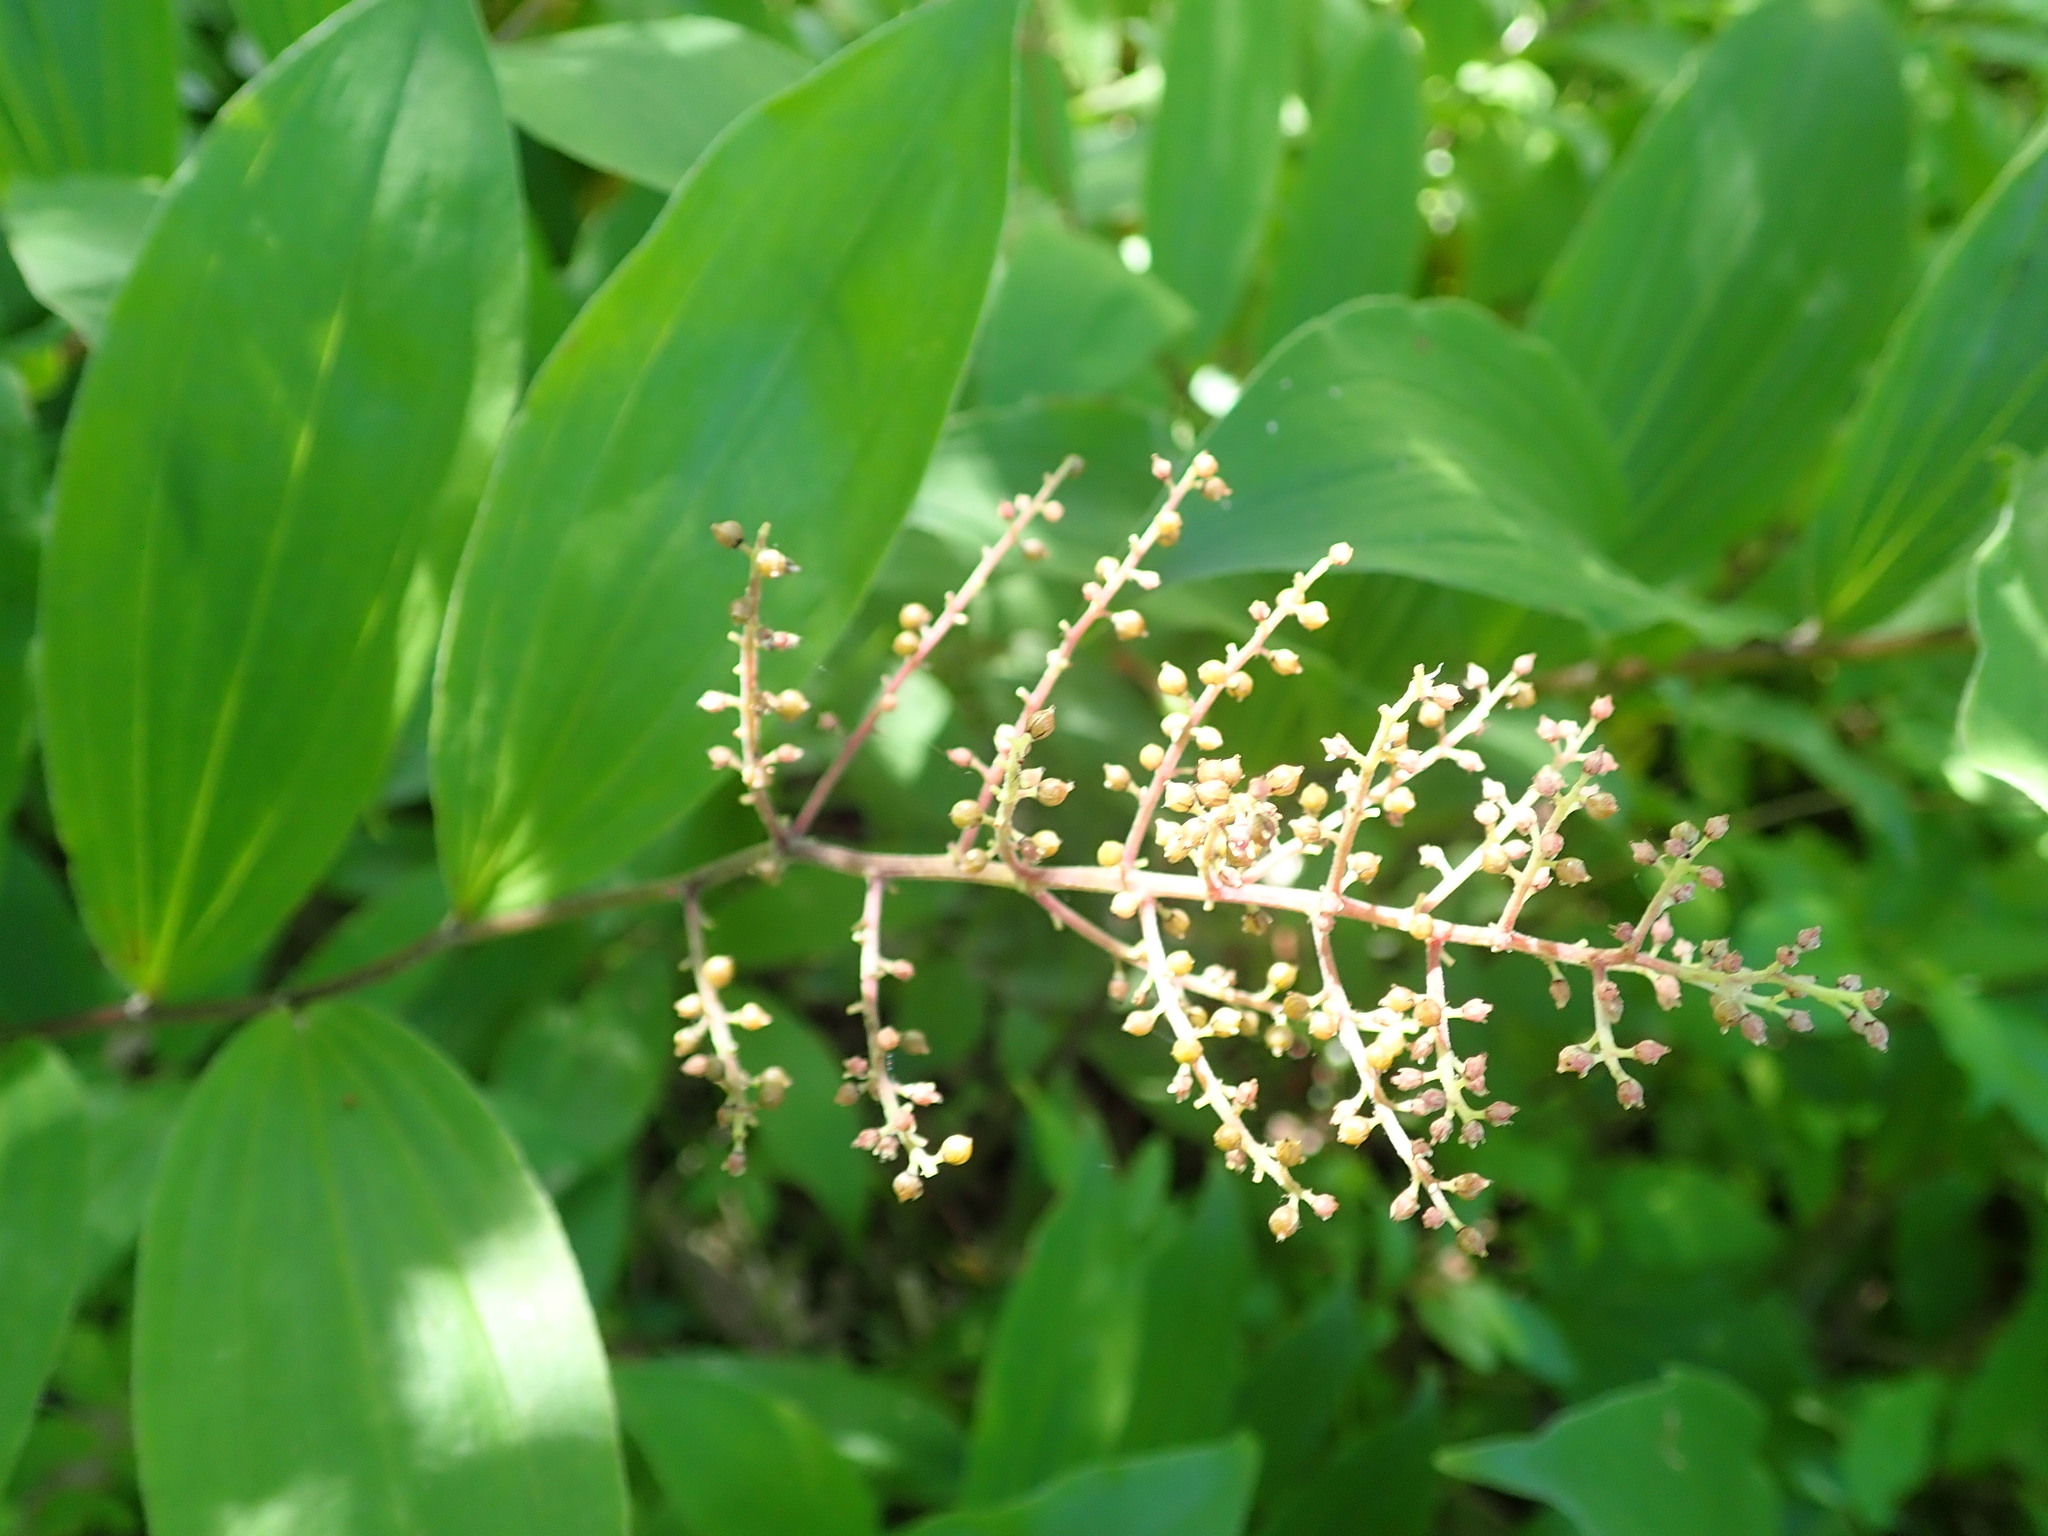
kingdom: Plantae
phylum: Tracheophyta
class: Liliopsida
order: Asparagales
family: Asparagaceae
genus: Maianthemum
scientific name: Maianthemum racemosum
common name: False spikenard
